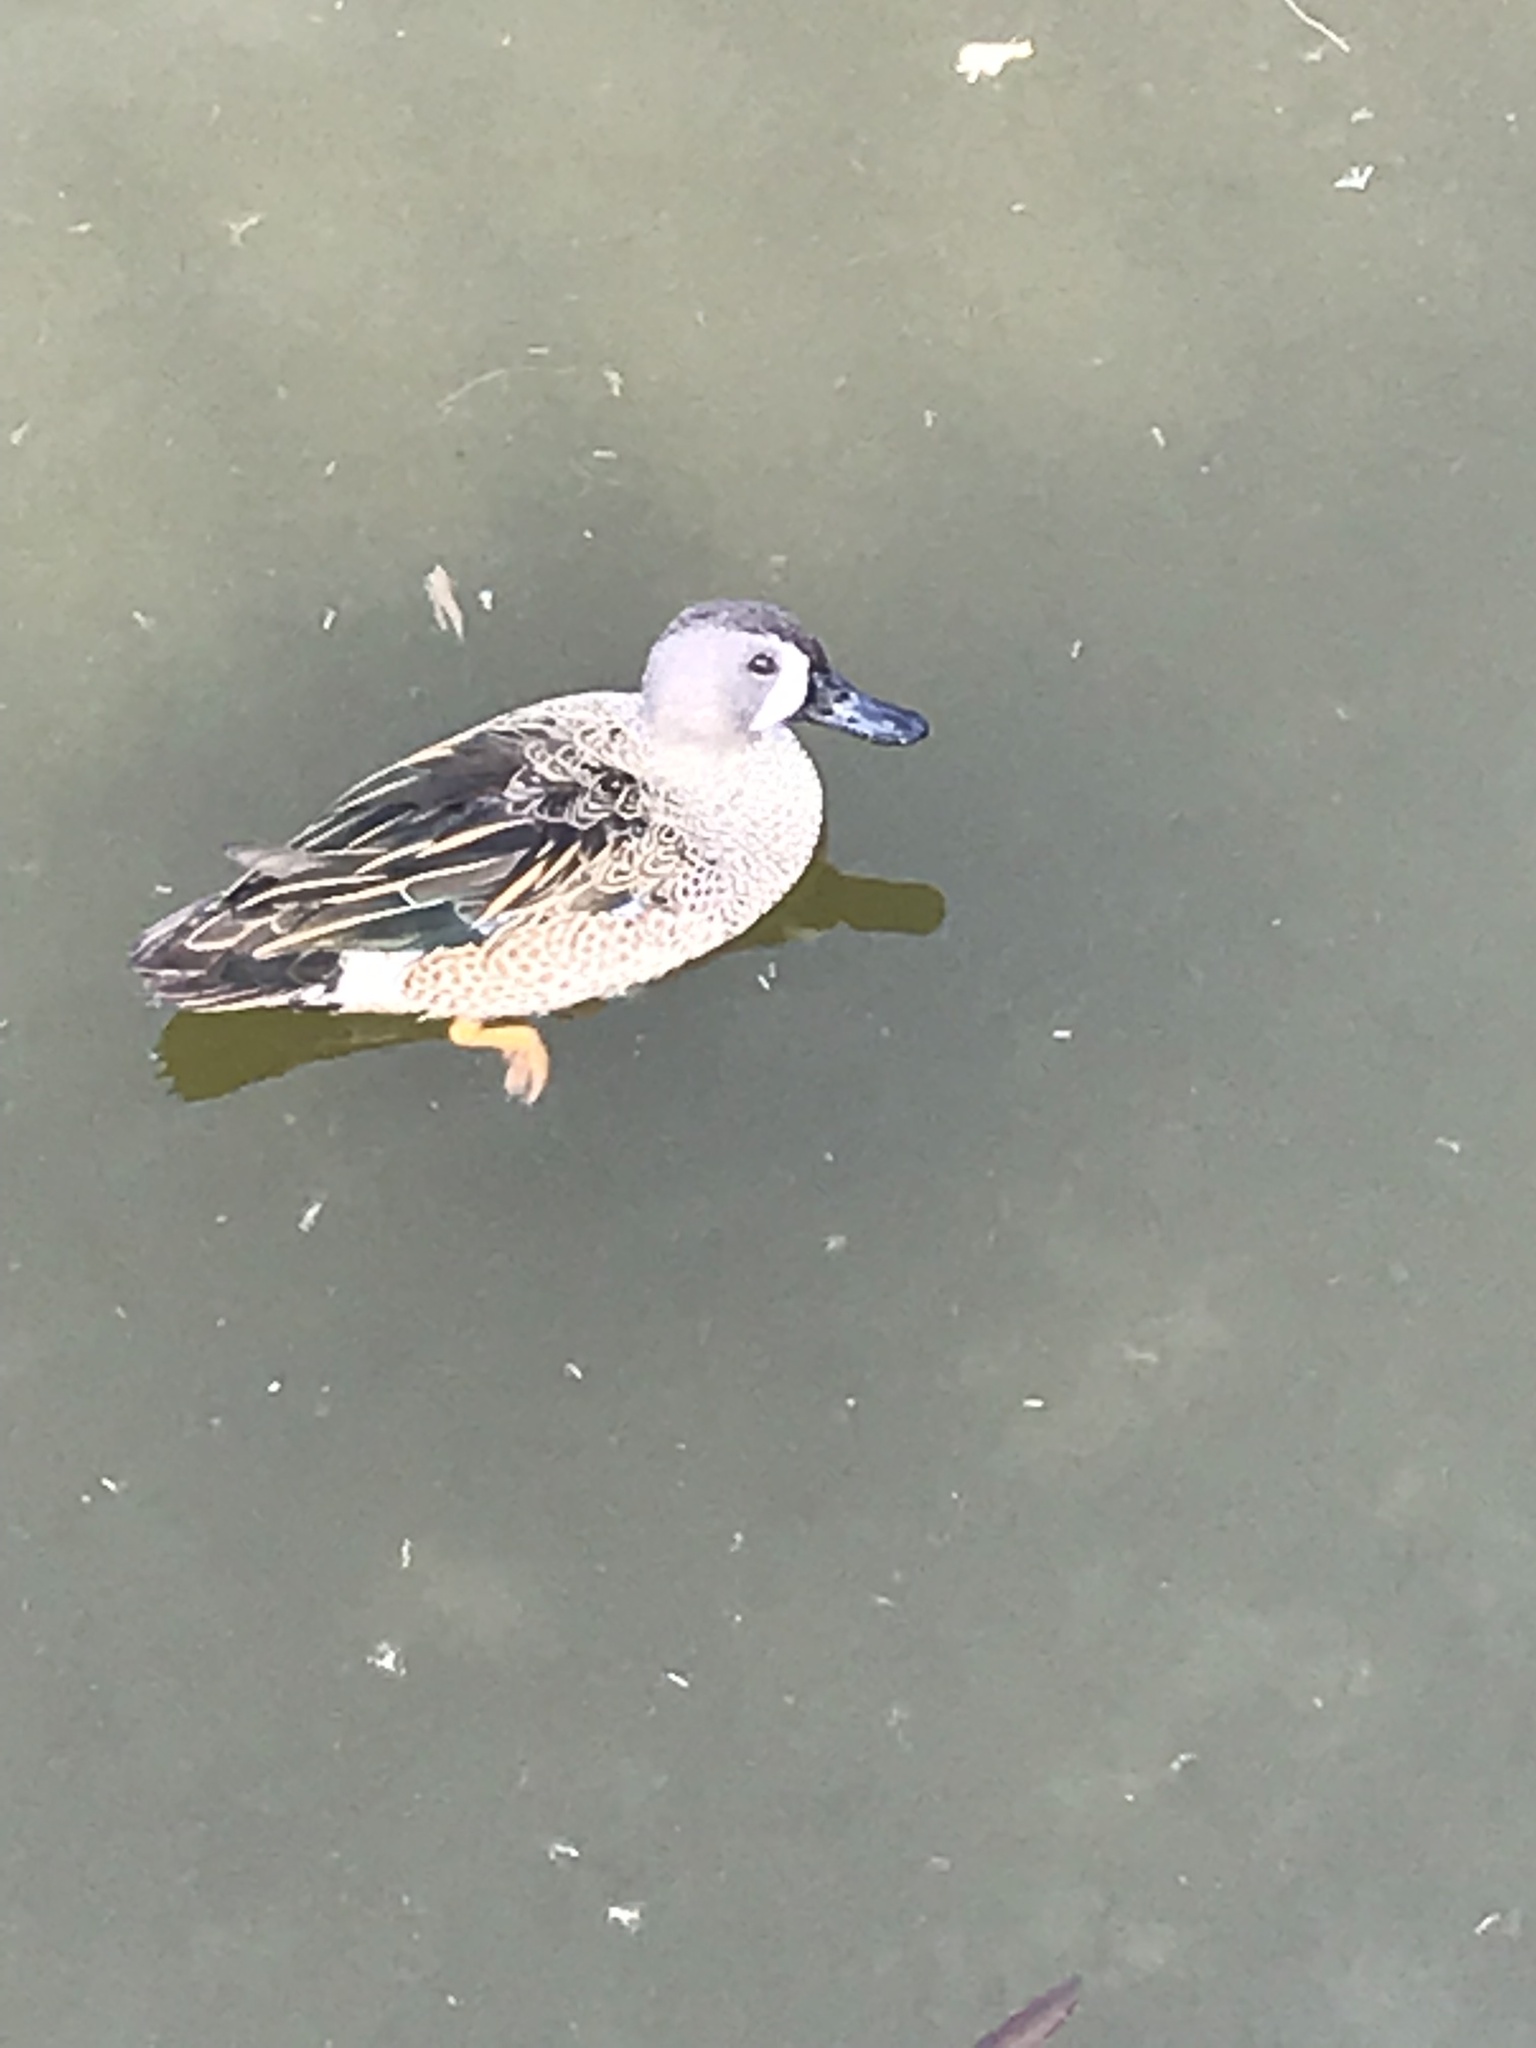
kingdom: Animalia
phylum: Chordata
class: Aves
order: Anseriformes
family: Anatidae
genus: Spatula
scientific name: Spatula discors
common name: Blue-winged teal
